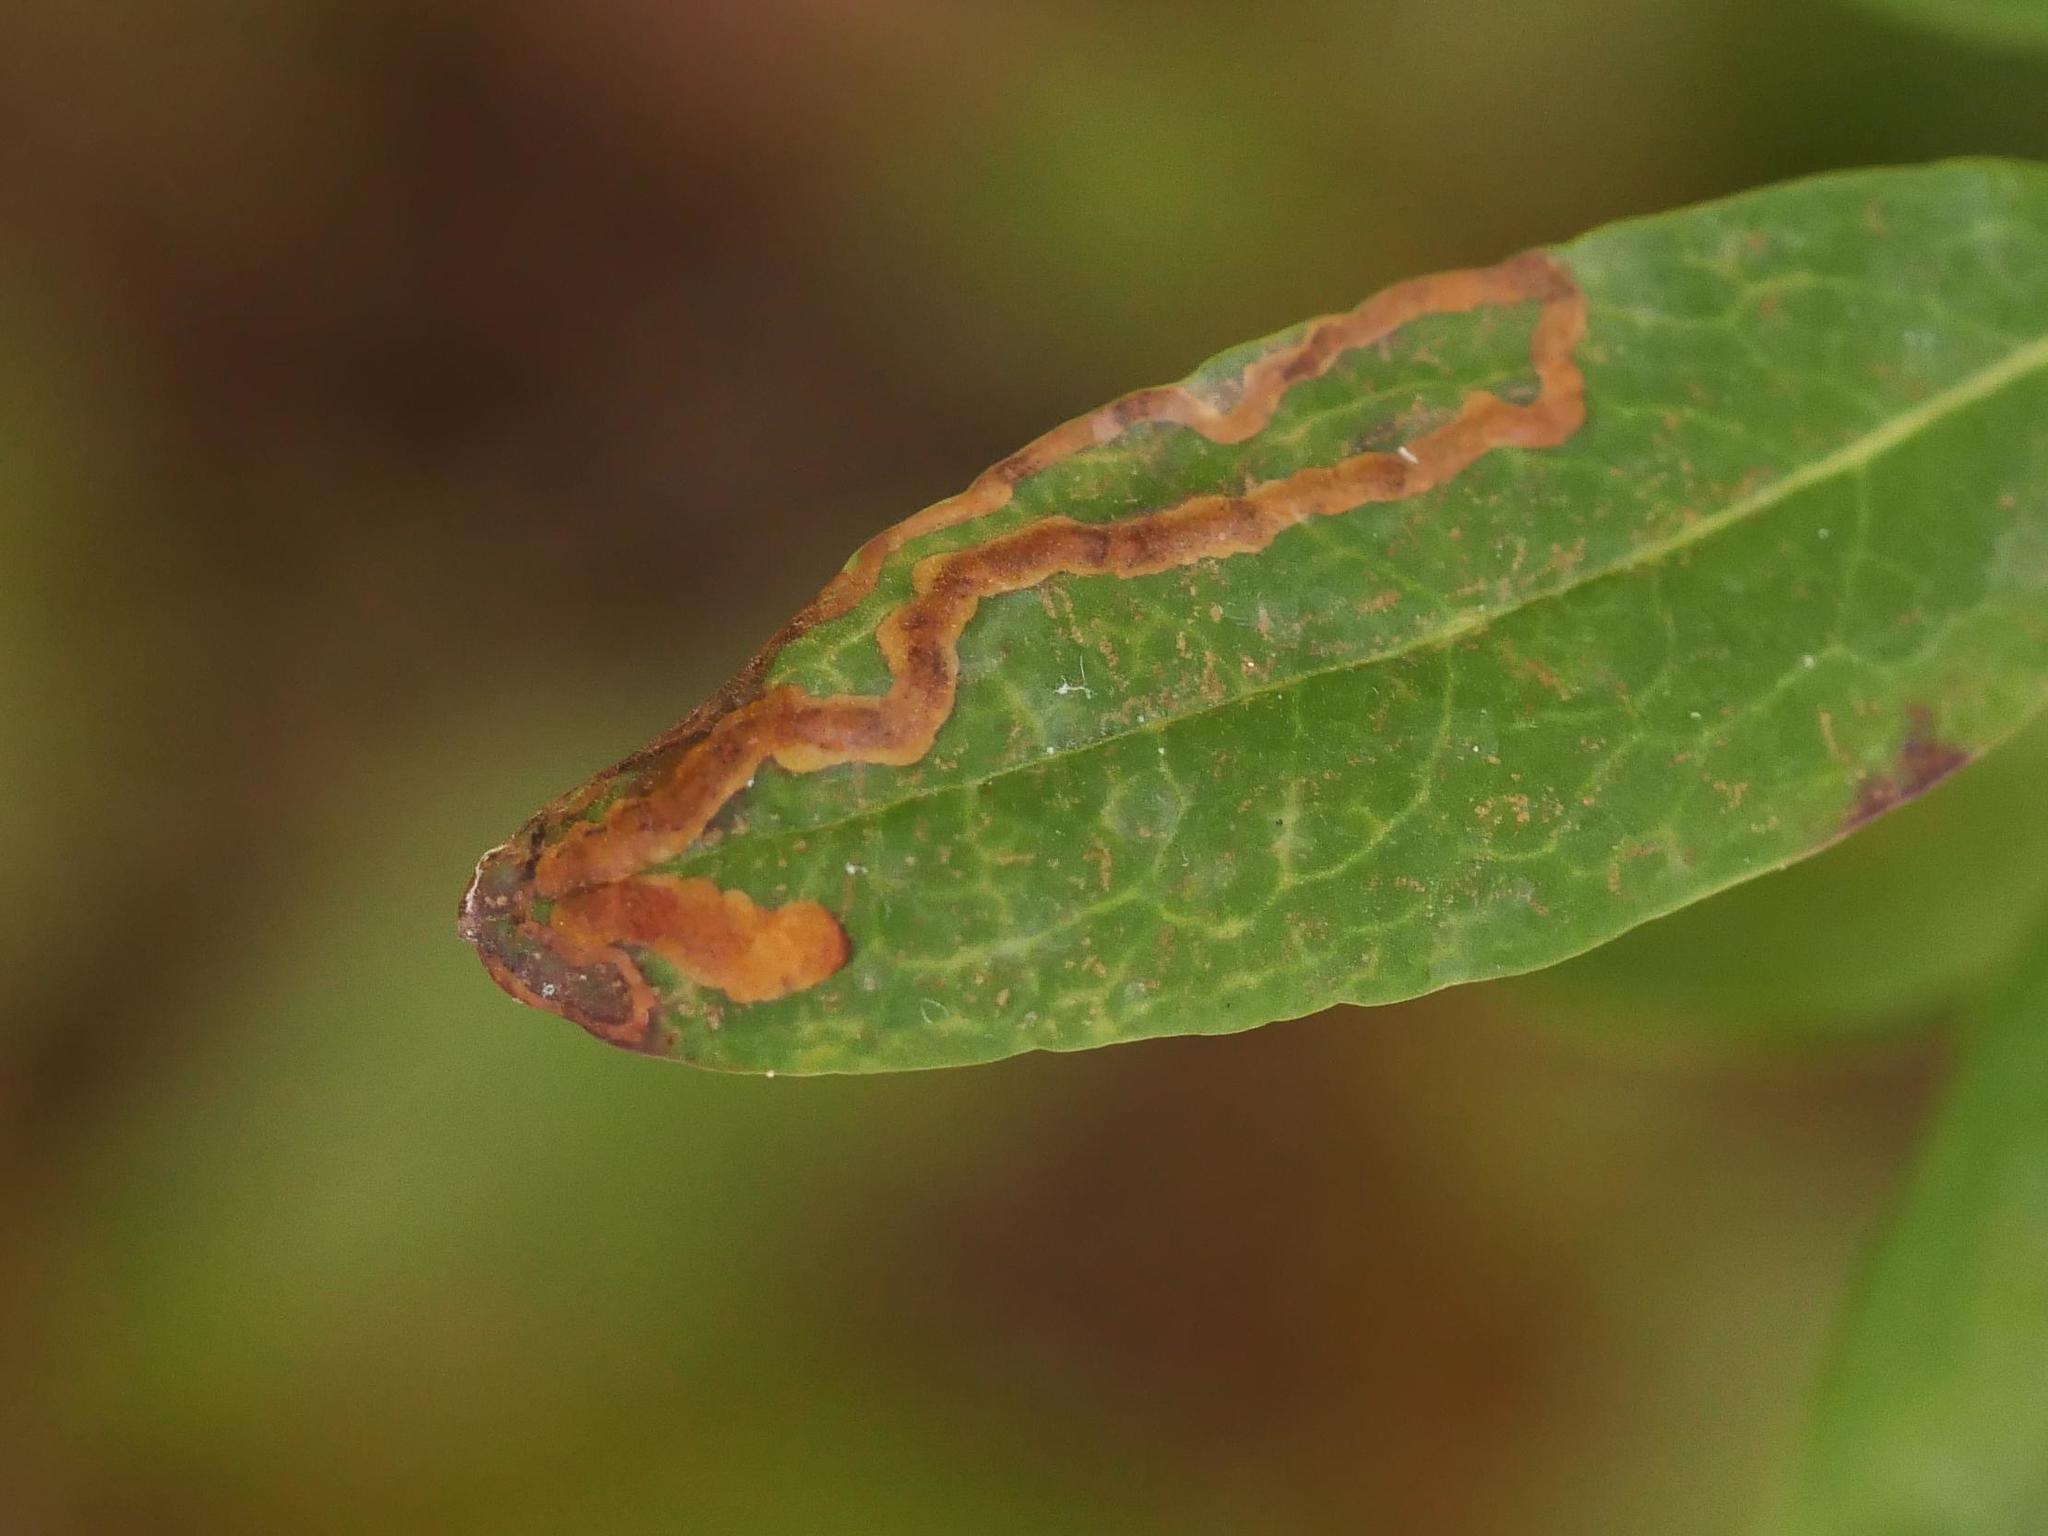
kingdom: Animalia
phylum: Arthropoda
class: Insecta
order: Lepidoptera
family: Coleophoridae
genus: Coleophora
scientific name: Coleophora kalmiella
